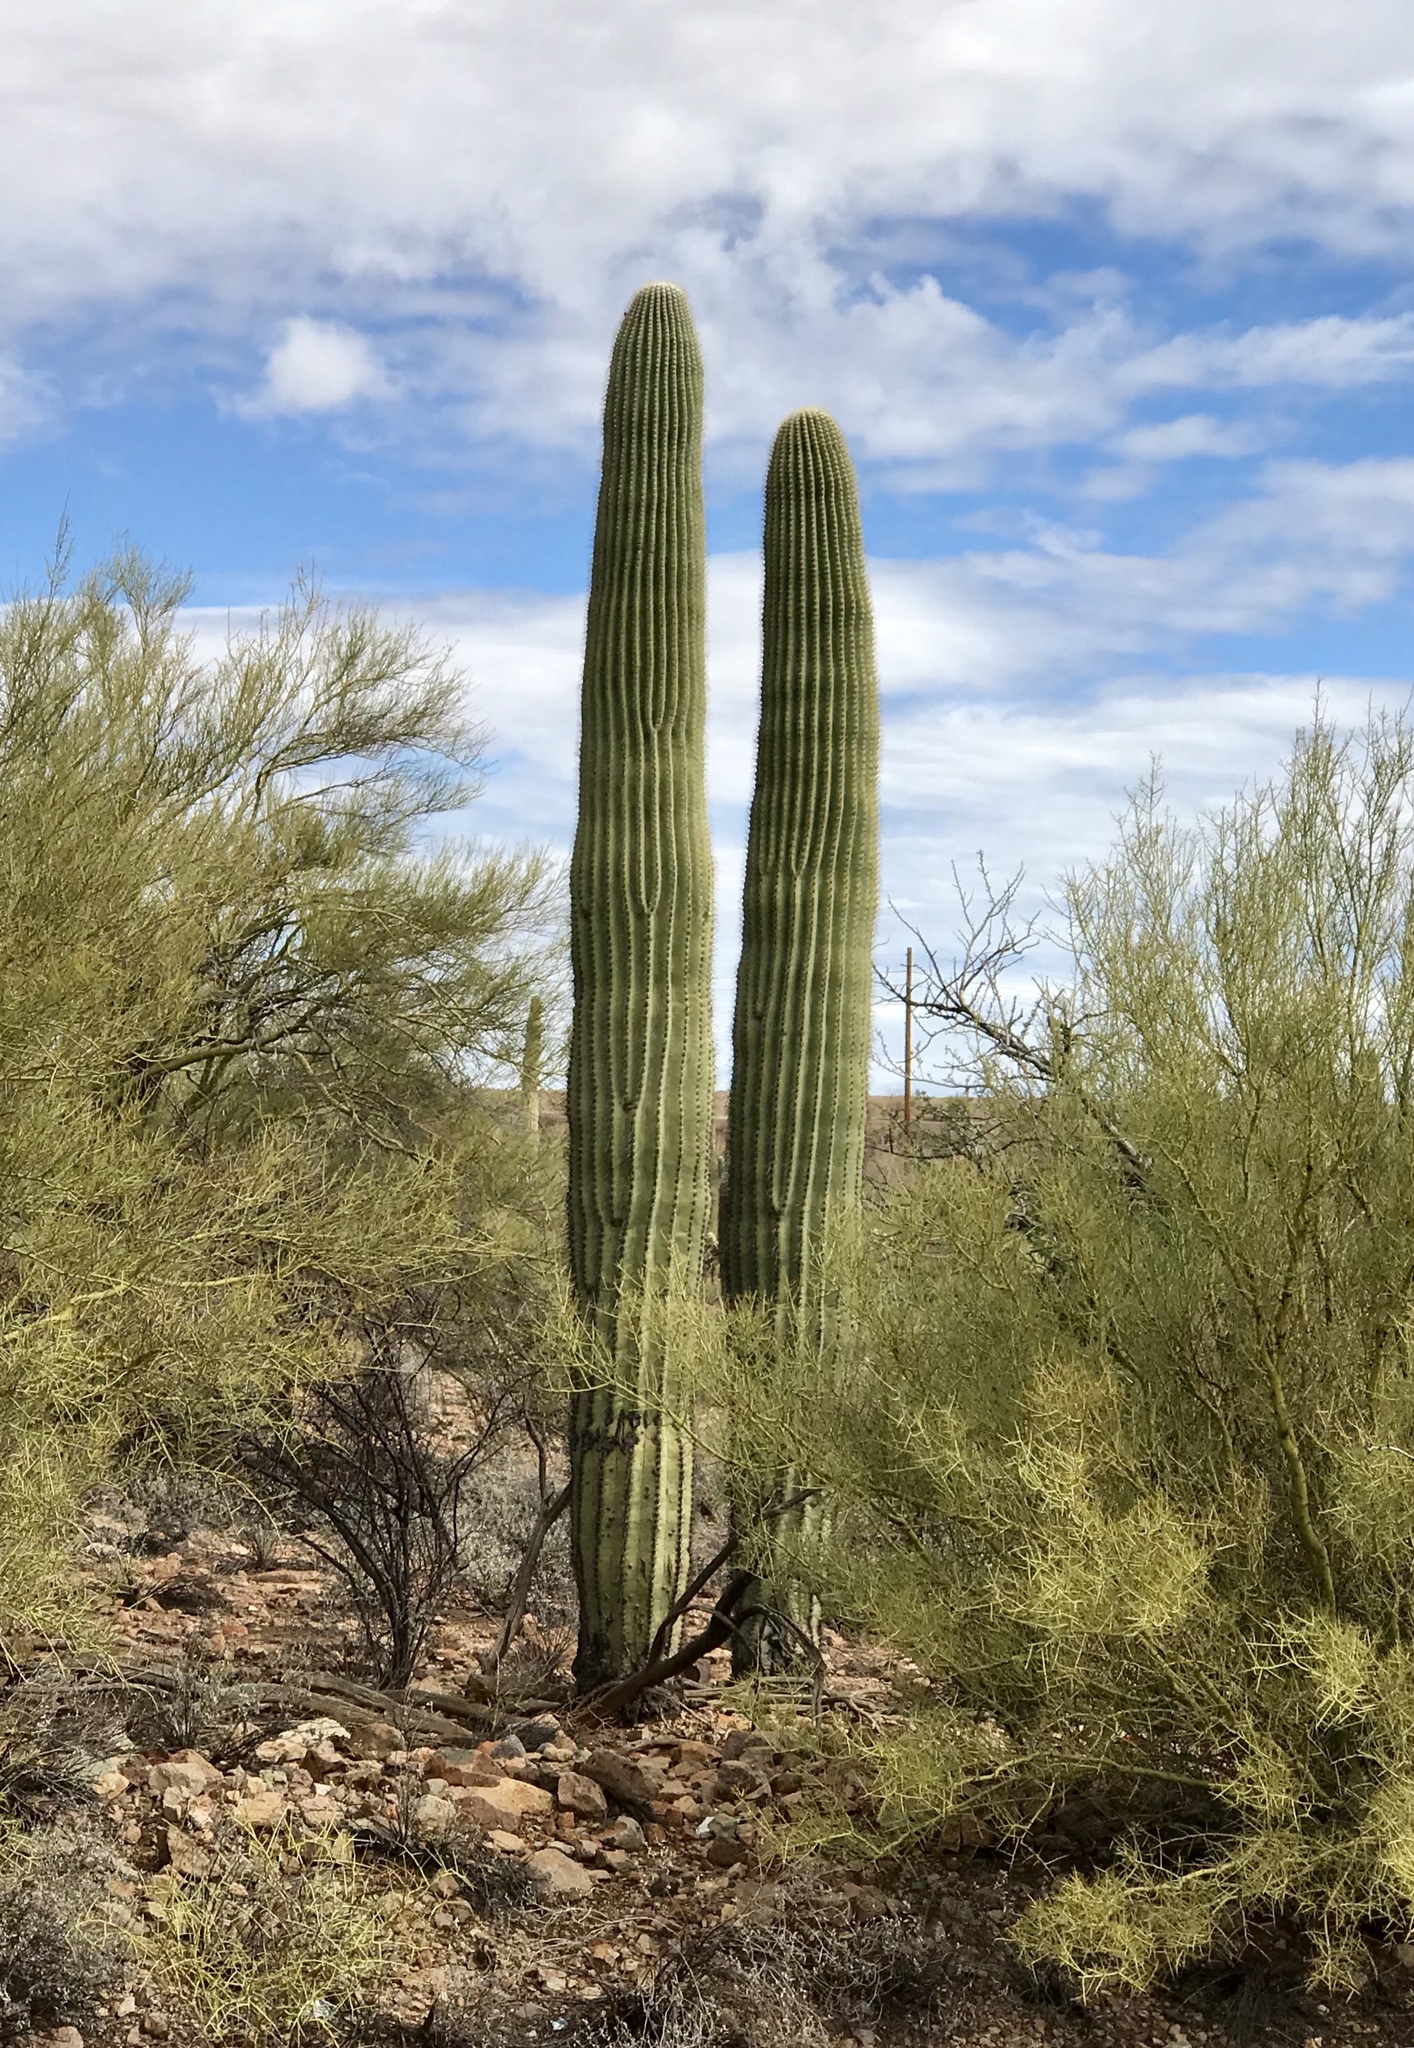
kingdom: Plantae
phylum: Tracheophyta
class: Magnoliopsida
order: Caryophyllales
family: Cactaceae
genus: Carnegiea
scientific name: Carnegiea gigantea
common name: Saguaro
